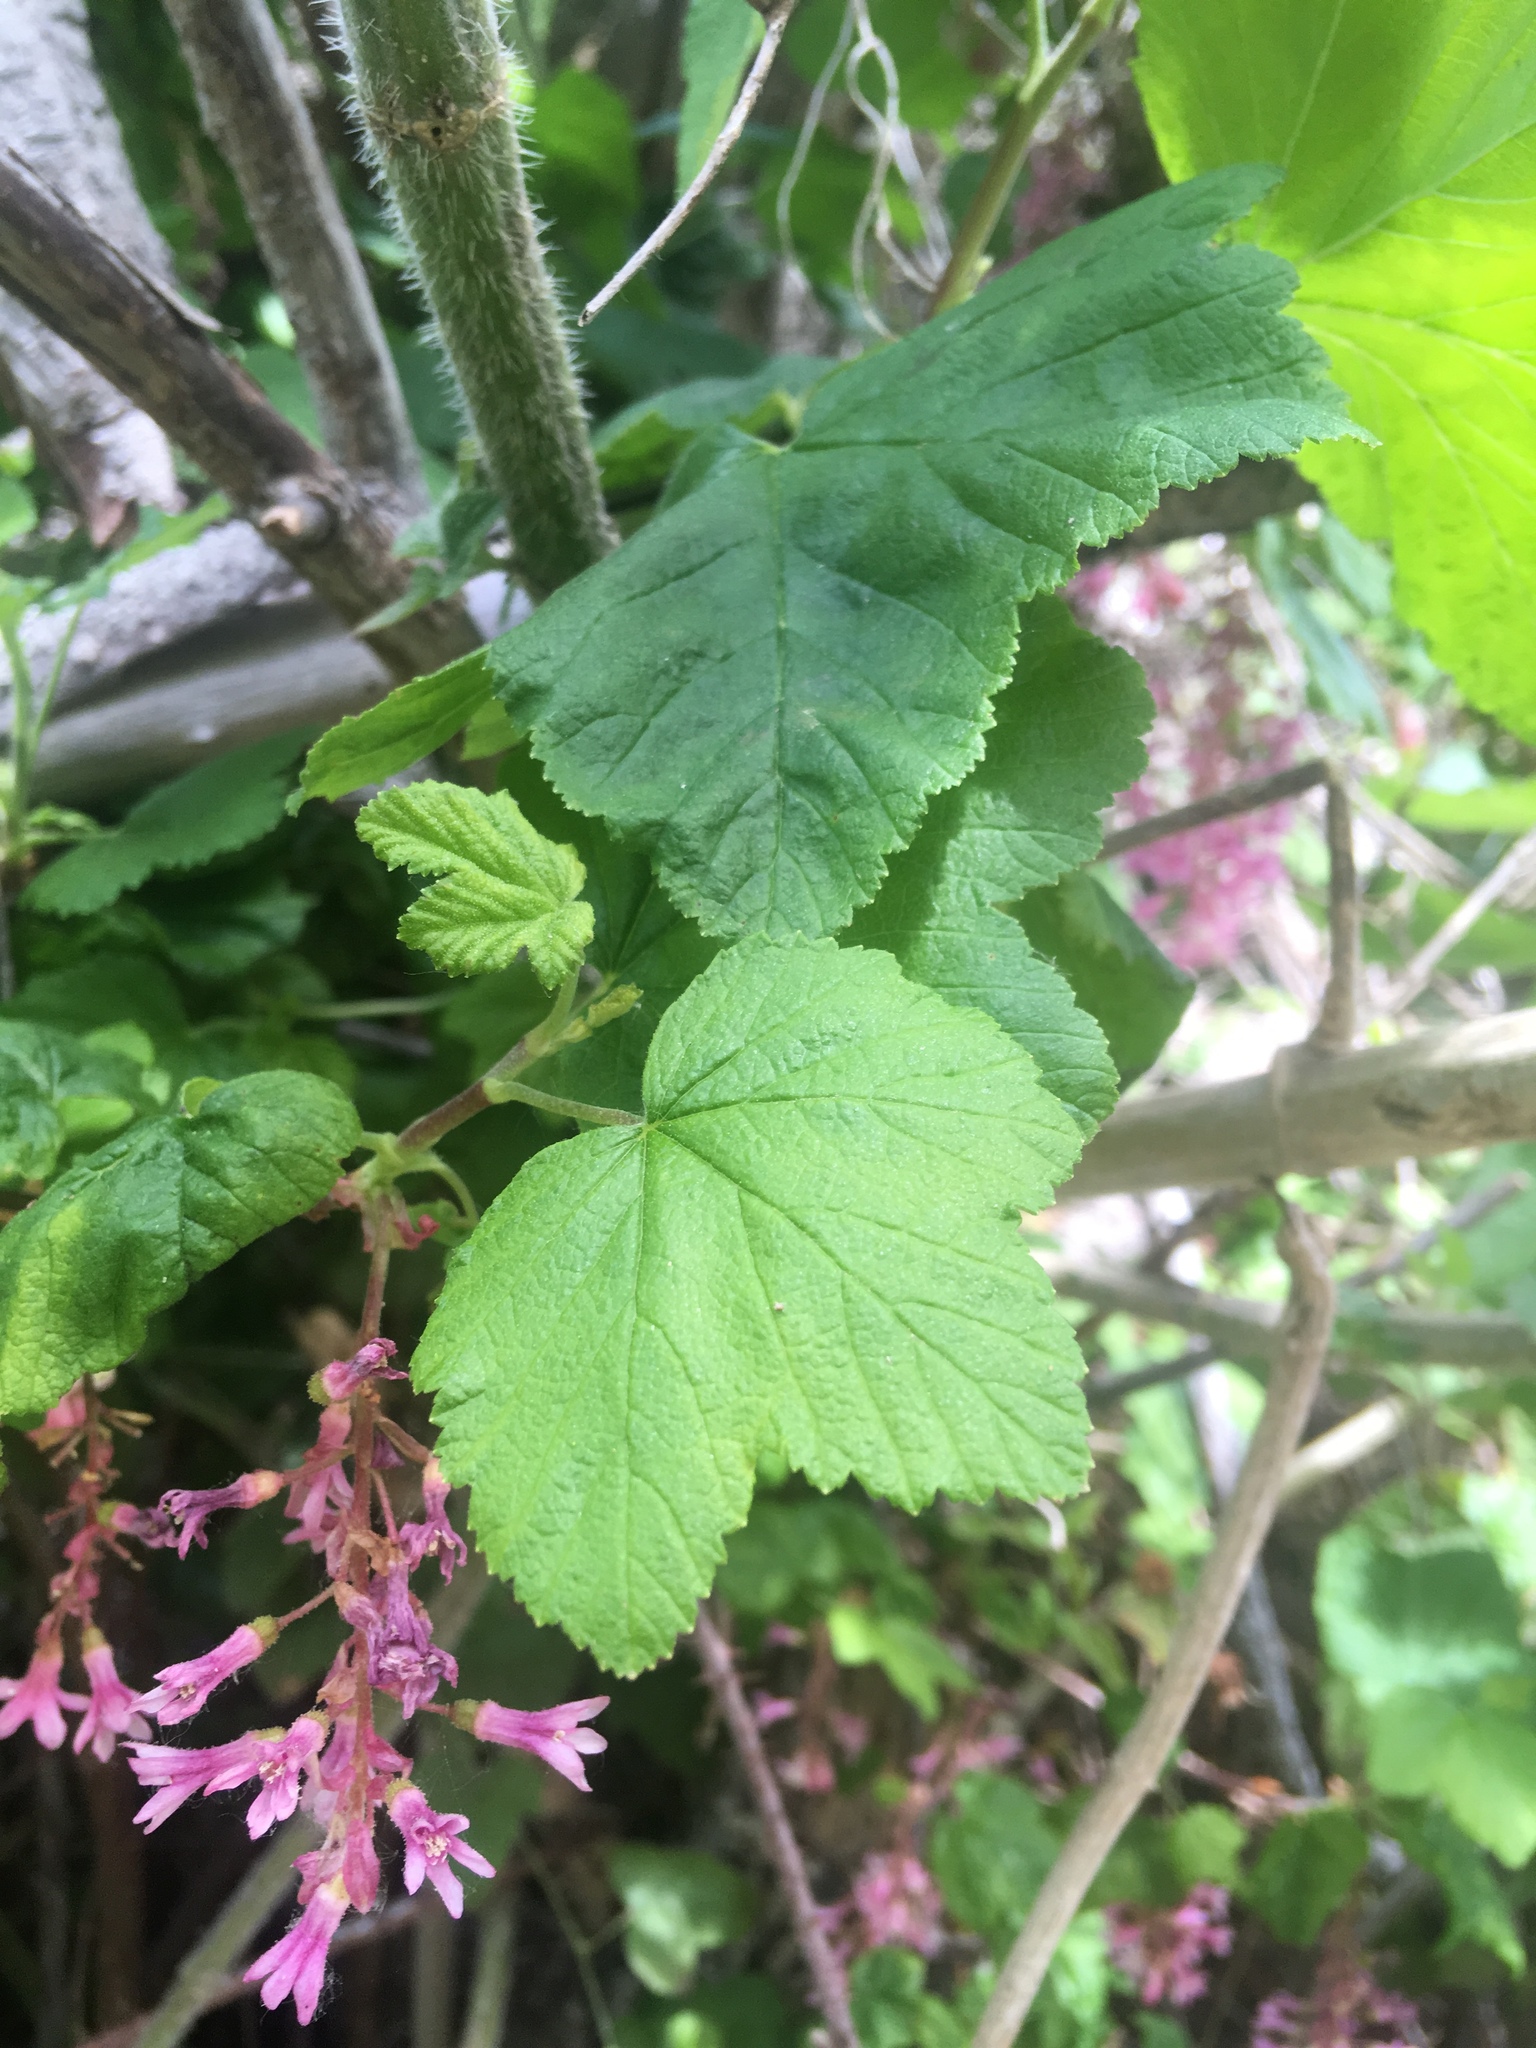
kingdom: Plantae
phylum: Tracheophyta
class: Magnoliopsida
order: Saxifragales
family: Grossulariaceae
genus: Ribes
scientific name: Ribes sanguineum
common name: Flowering currant
